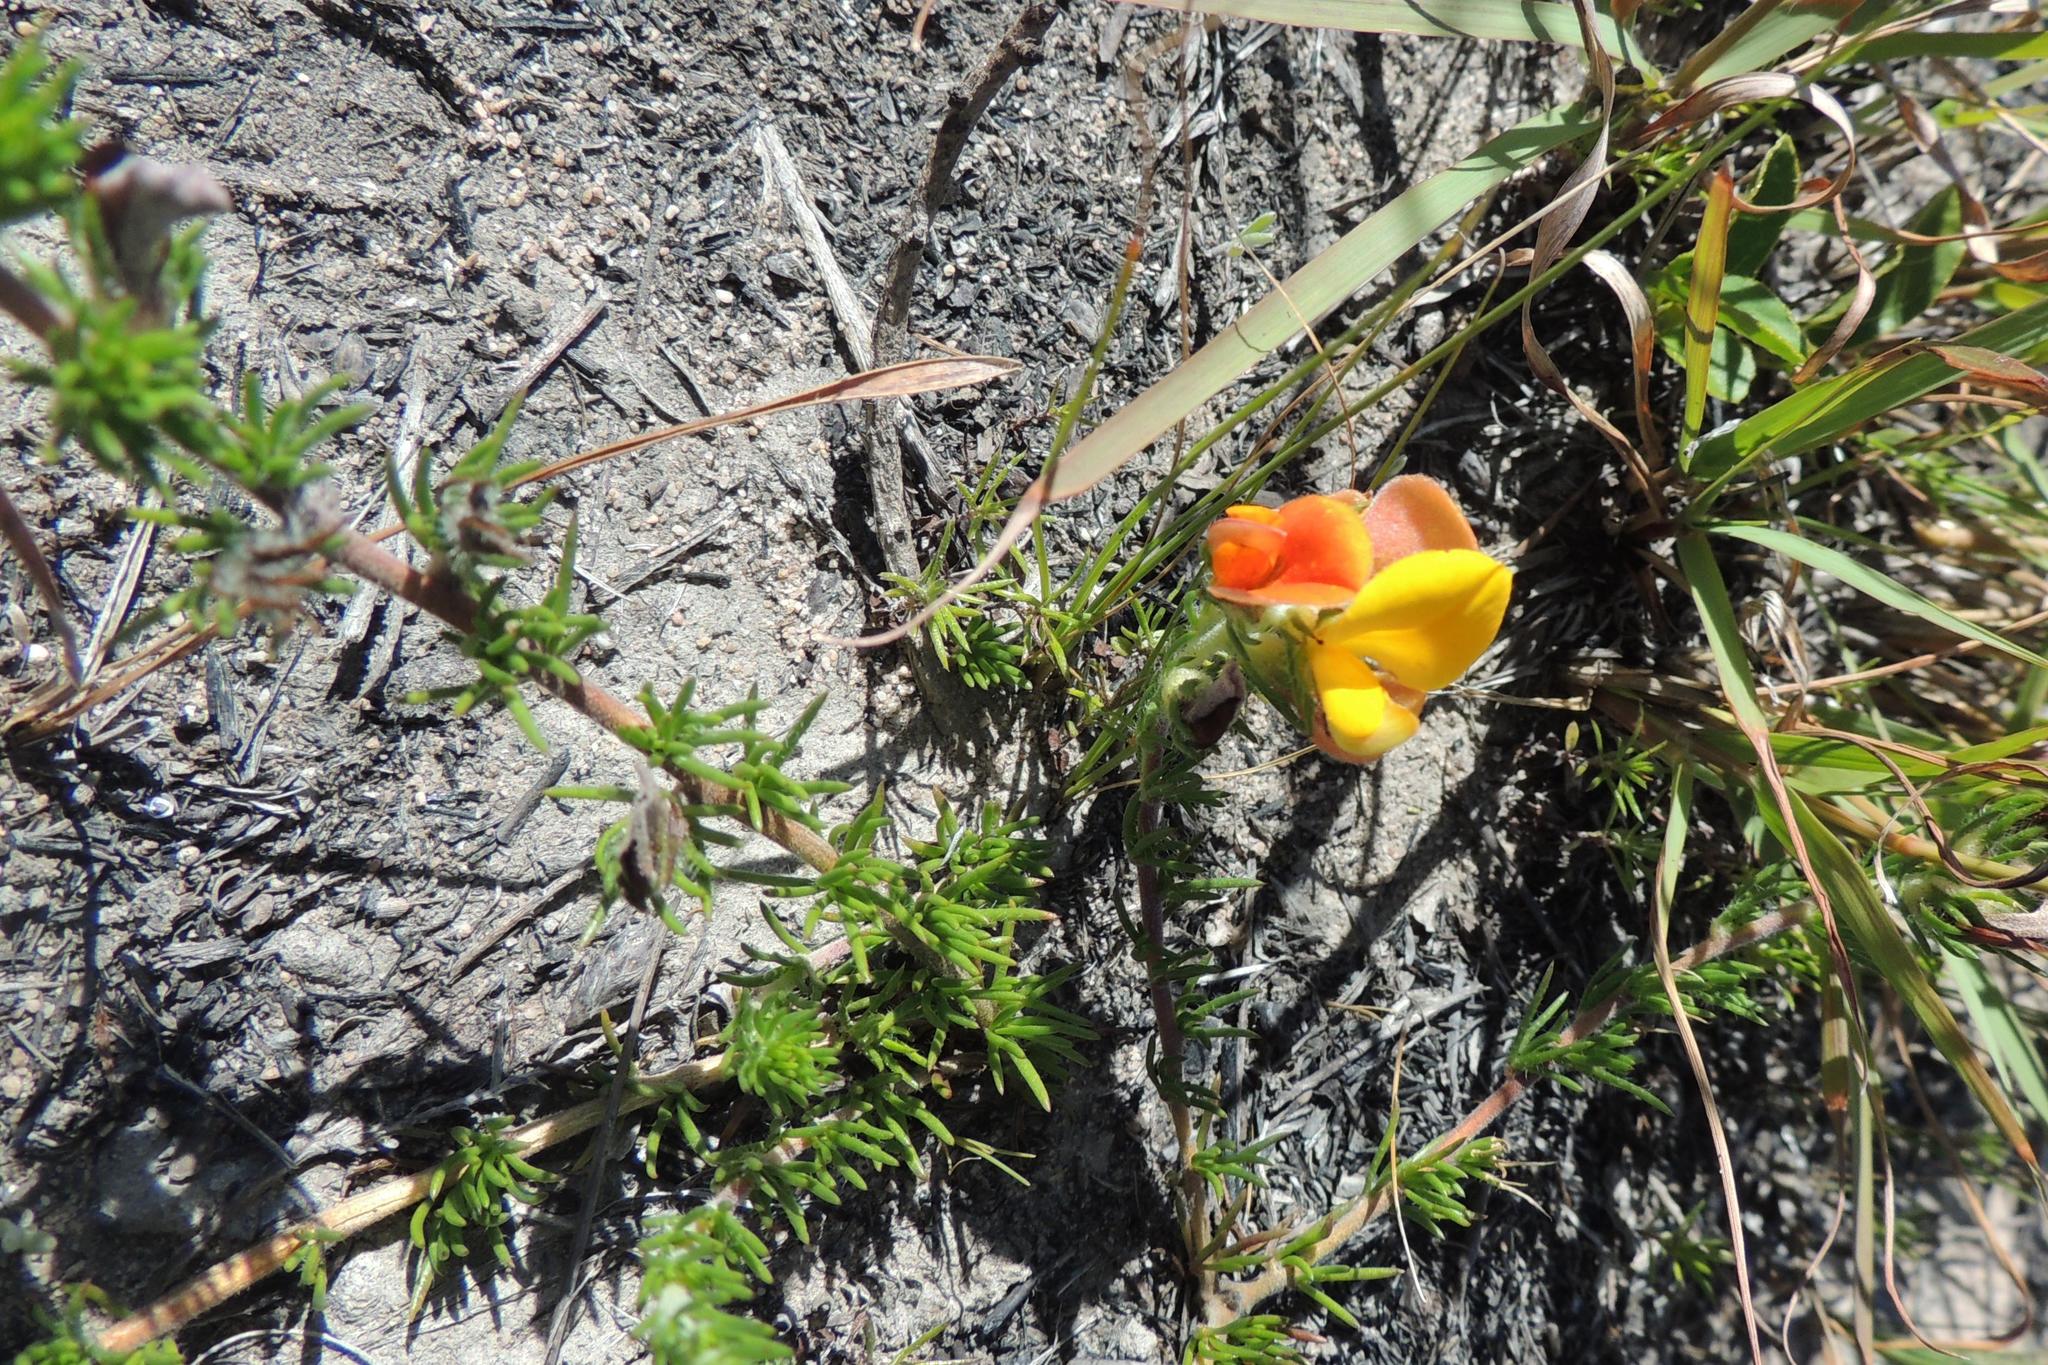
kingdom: Plantae
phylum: Tracheophyta
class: Magnoliopsida
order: Fabales
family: Fabaceae
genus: Aspalathus
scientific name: Aspalathus ciliaris
